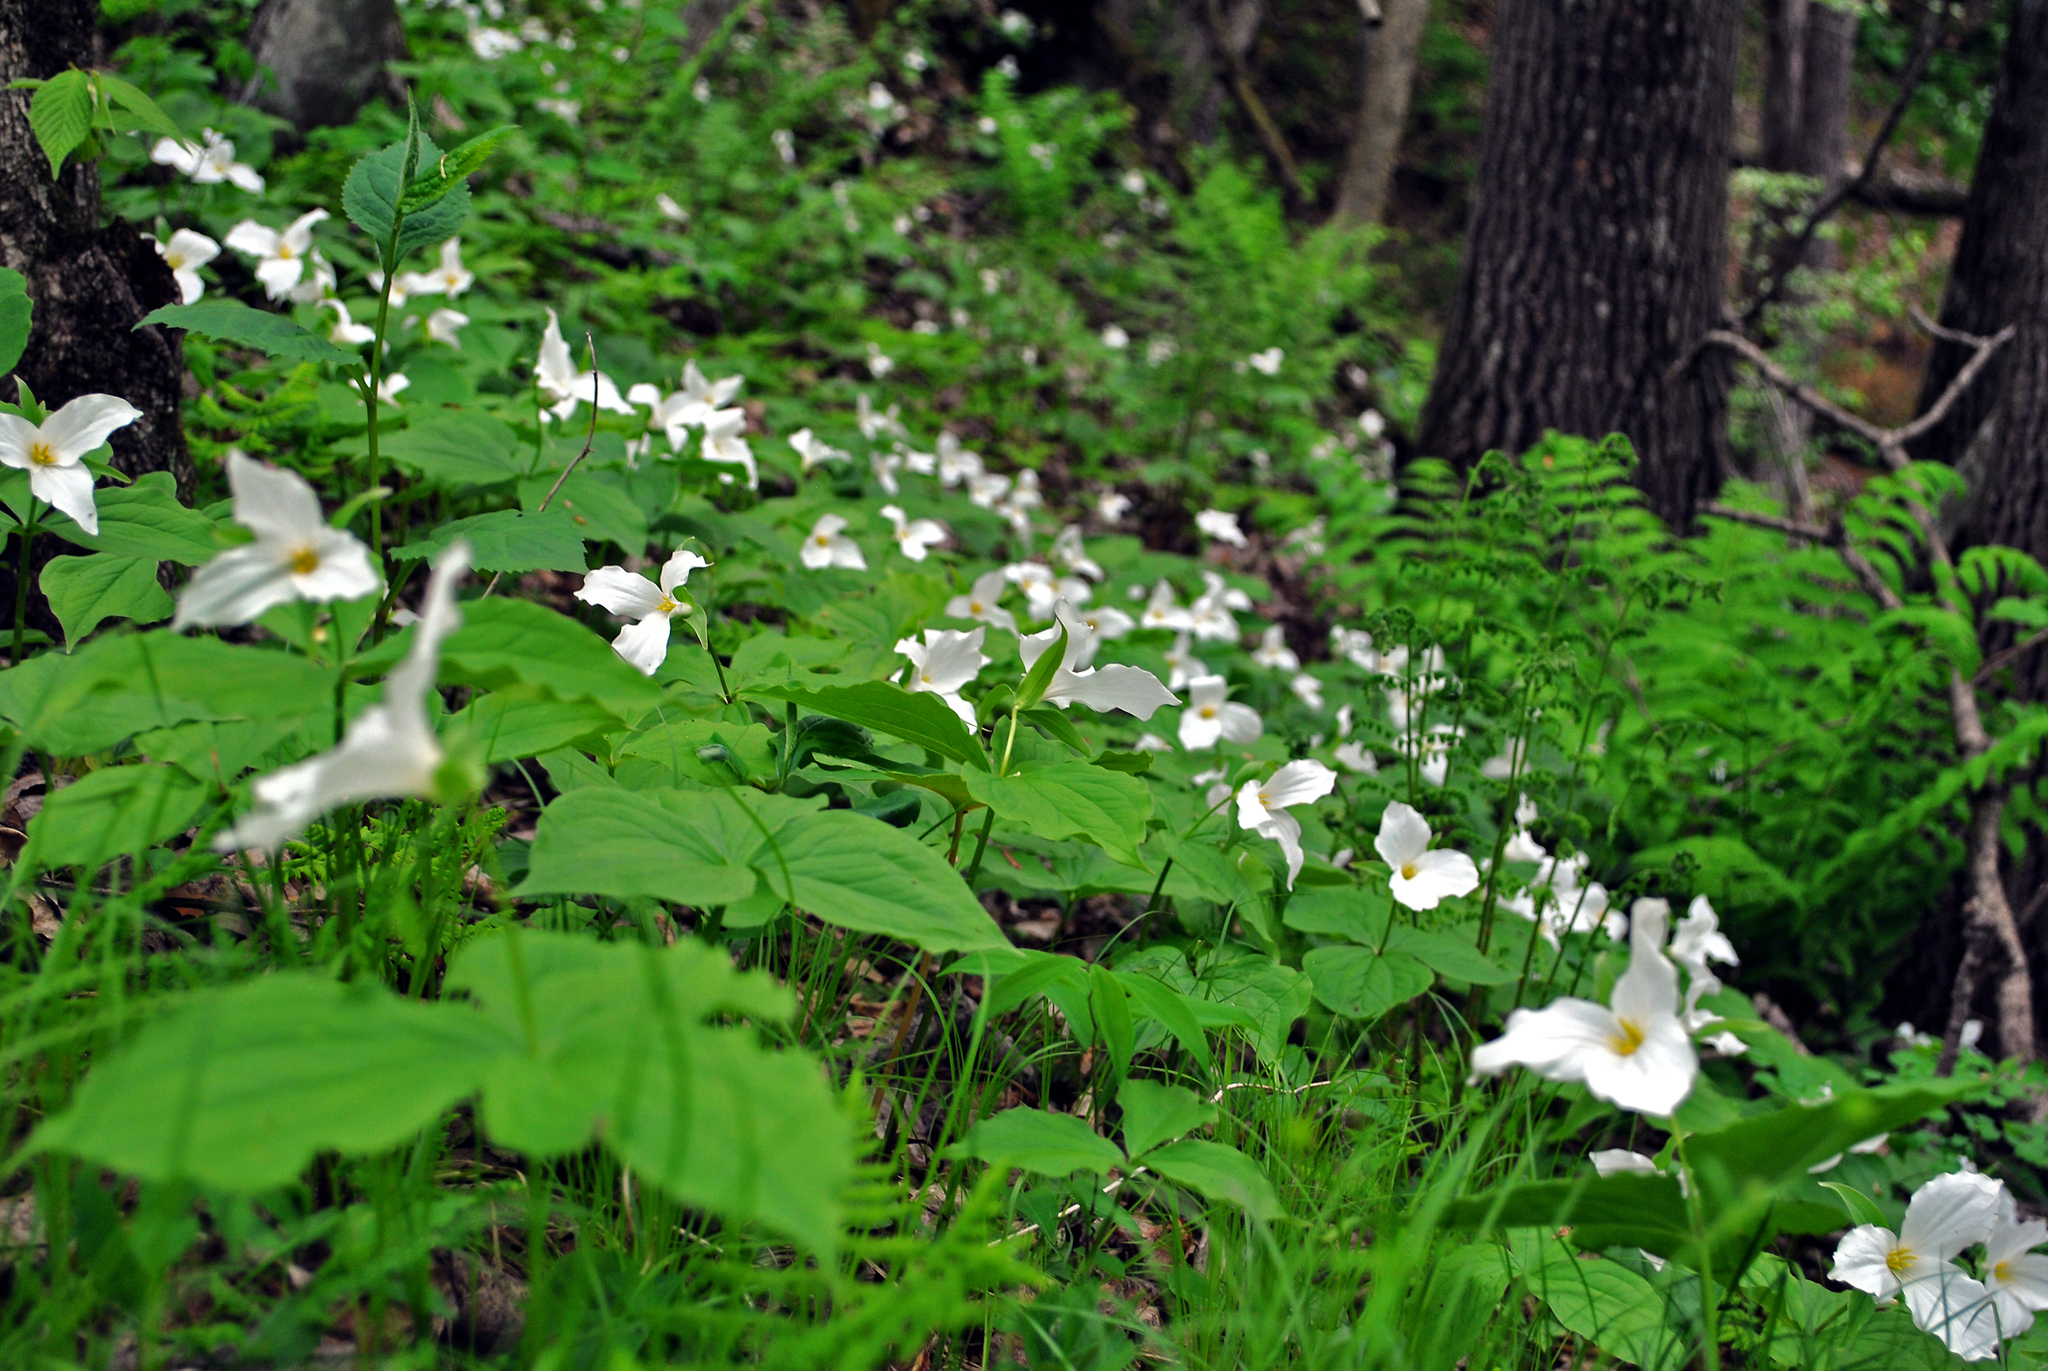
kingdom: Plantae
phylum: Tracheophyta
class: Liliopsida
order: Liliales
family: Melanthiaceae
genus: Trillium
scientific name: Trillium grandiflorum
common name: Great white trillium
